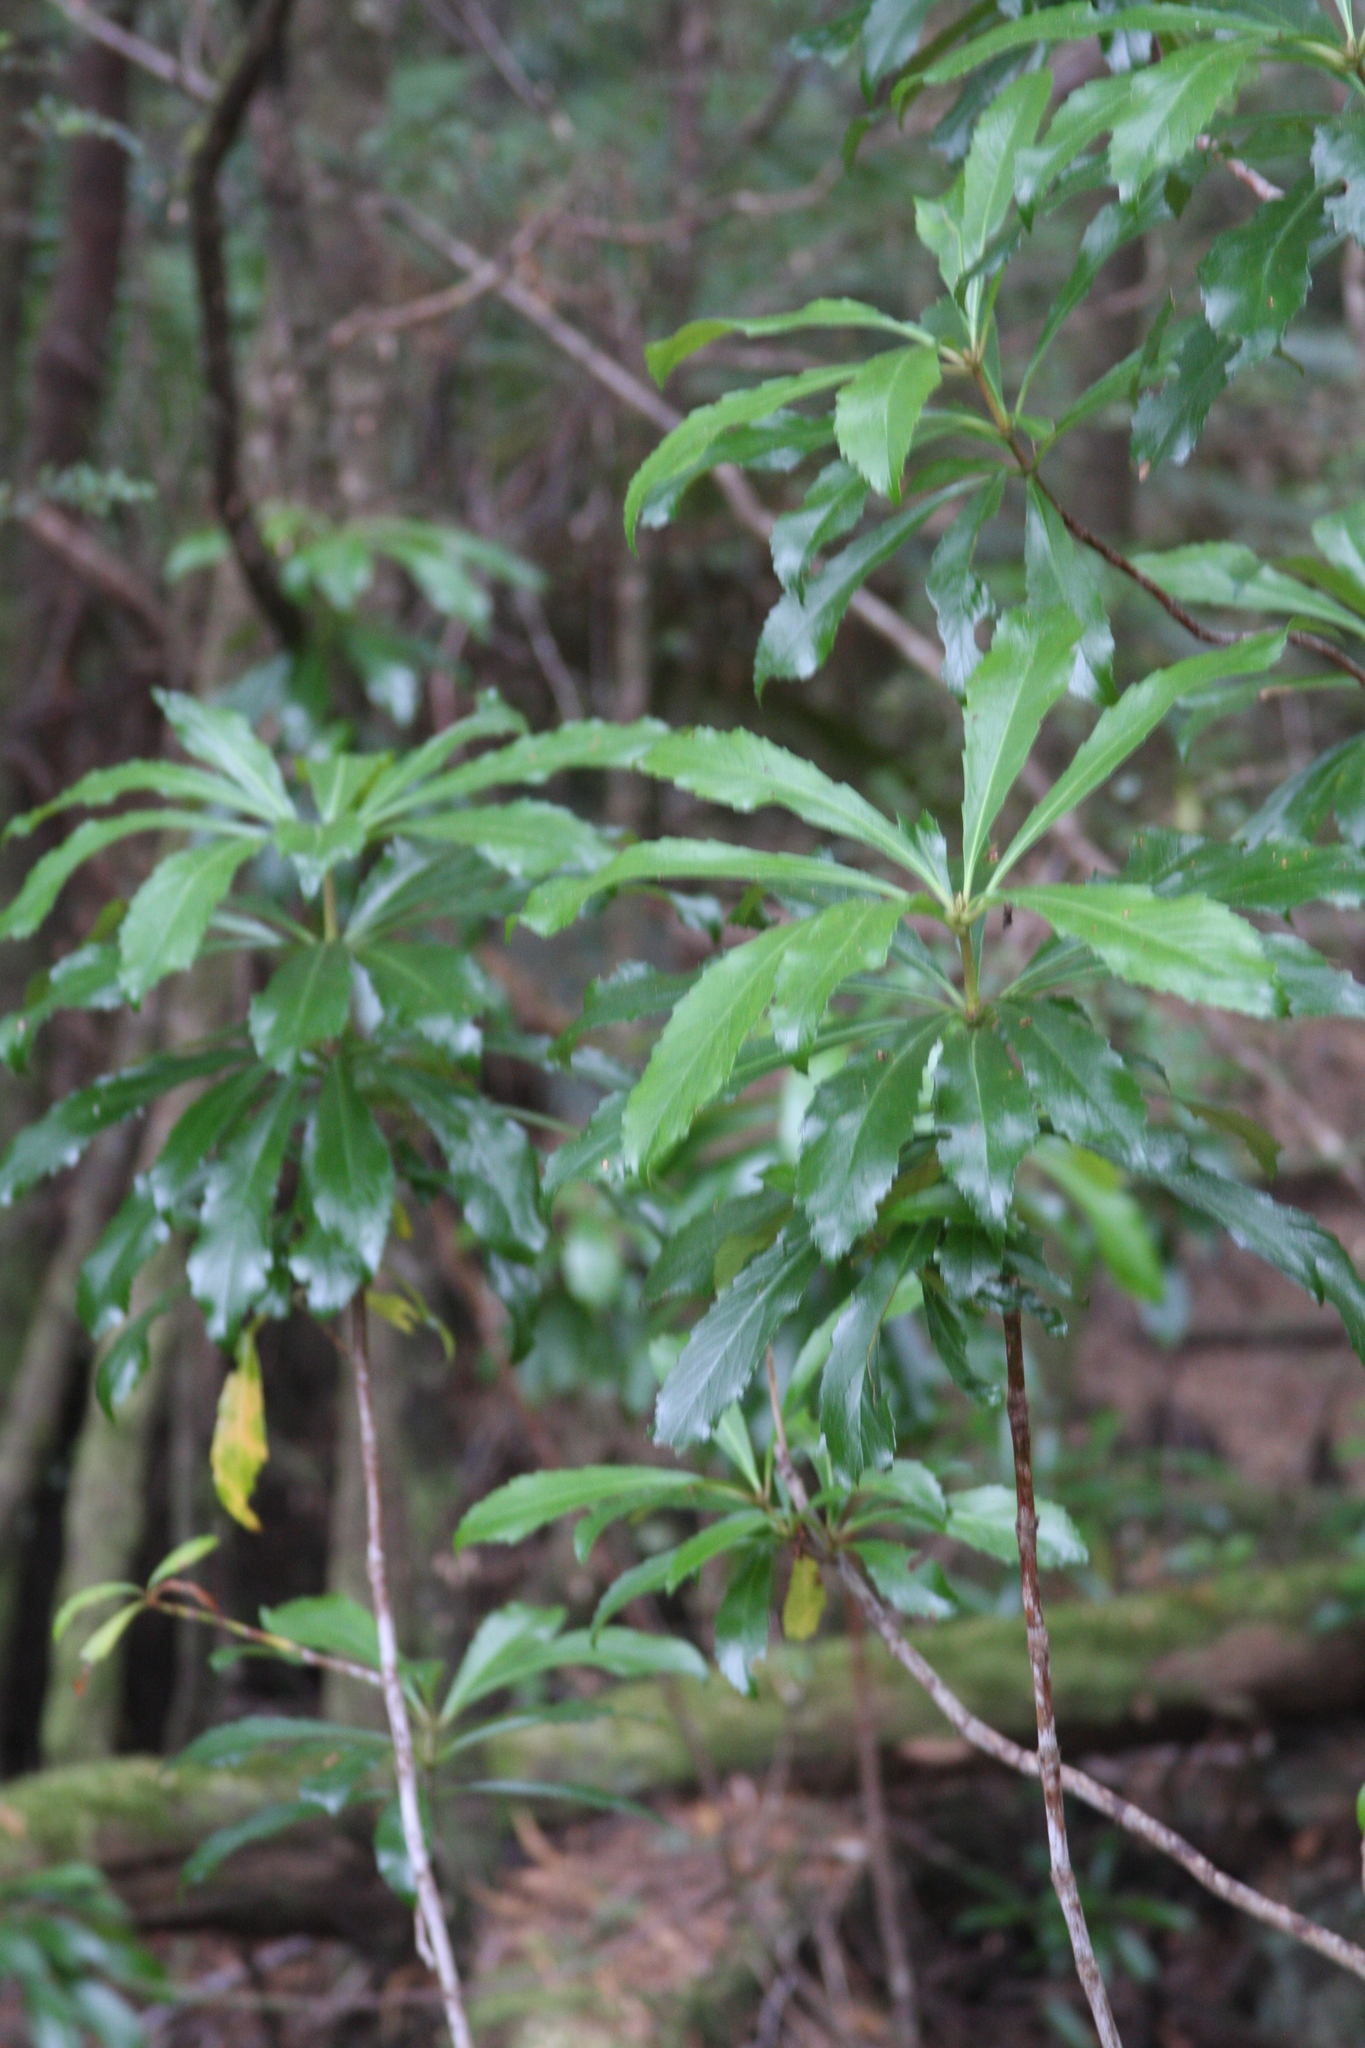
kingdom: Plantae
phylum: Tracheophyta
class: Magnoliopsida
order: Escalloniales
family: Escalloniaceae
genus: Anopterus
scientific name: Anopterus glandulosus
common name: Tasmanian-laurel
